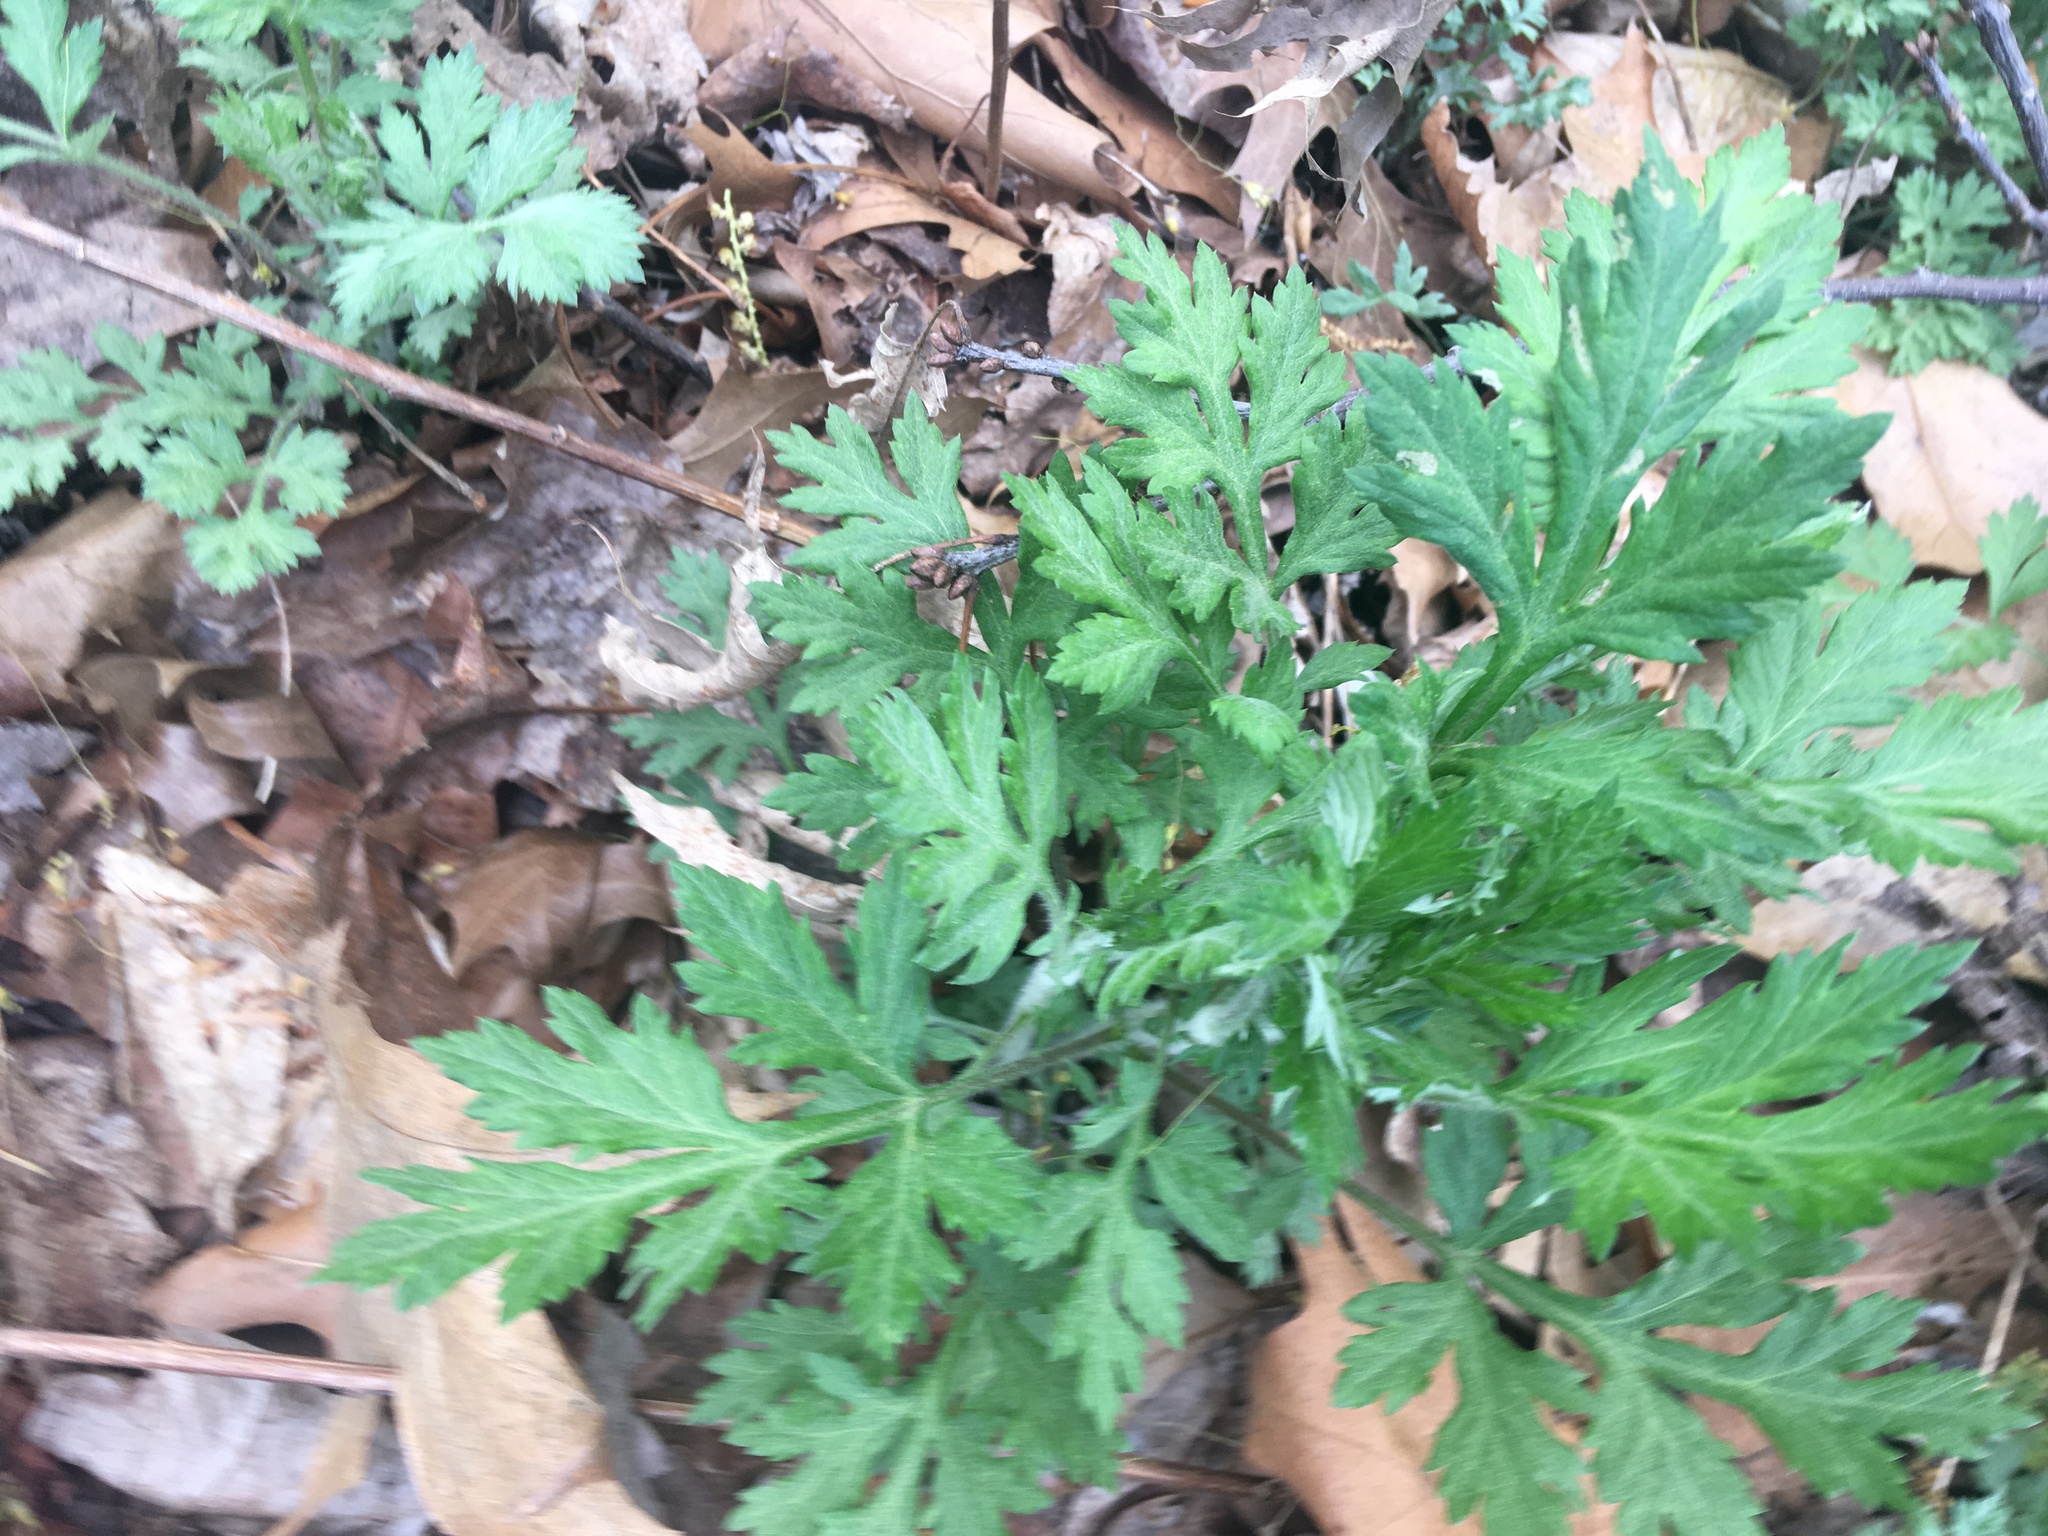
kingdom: Plantae
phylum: Tracheophyta
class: Magnoliopsida
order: Asterales
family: Asteraceae
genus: Artemisia
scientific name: Artemisia vulgaris
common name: Mugwort
